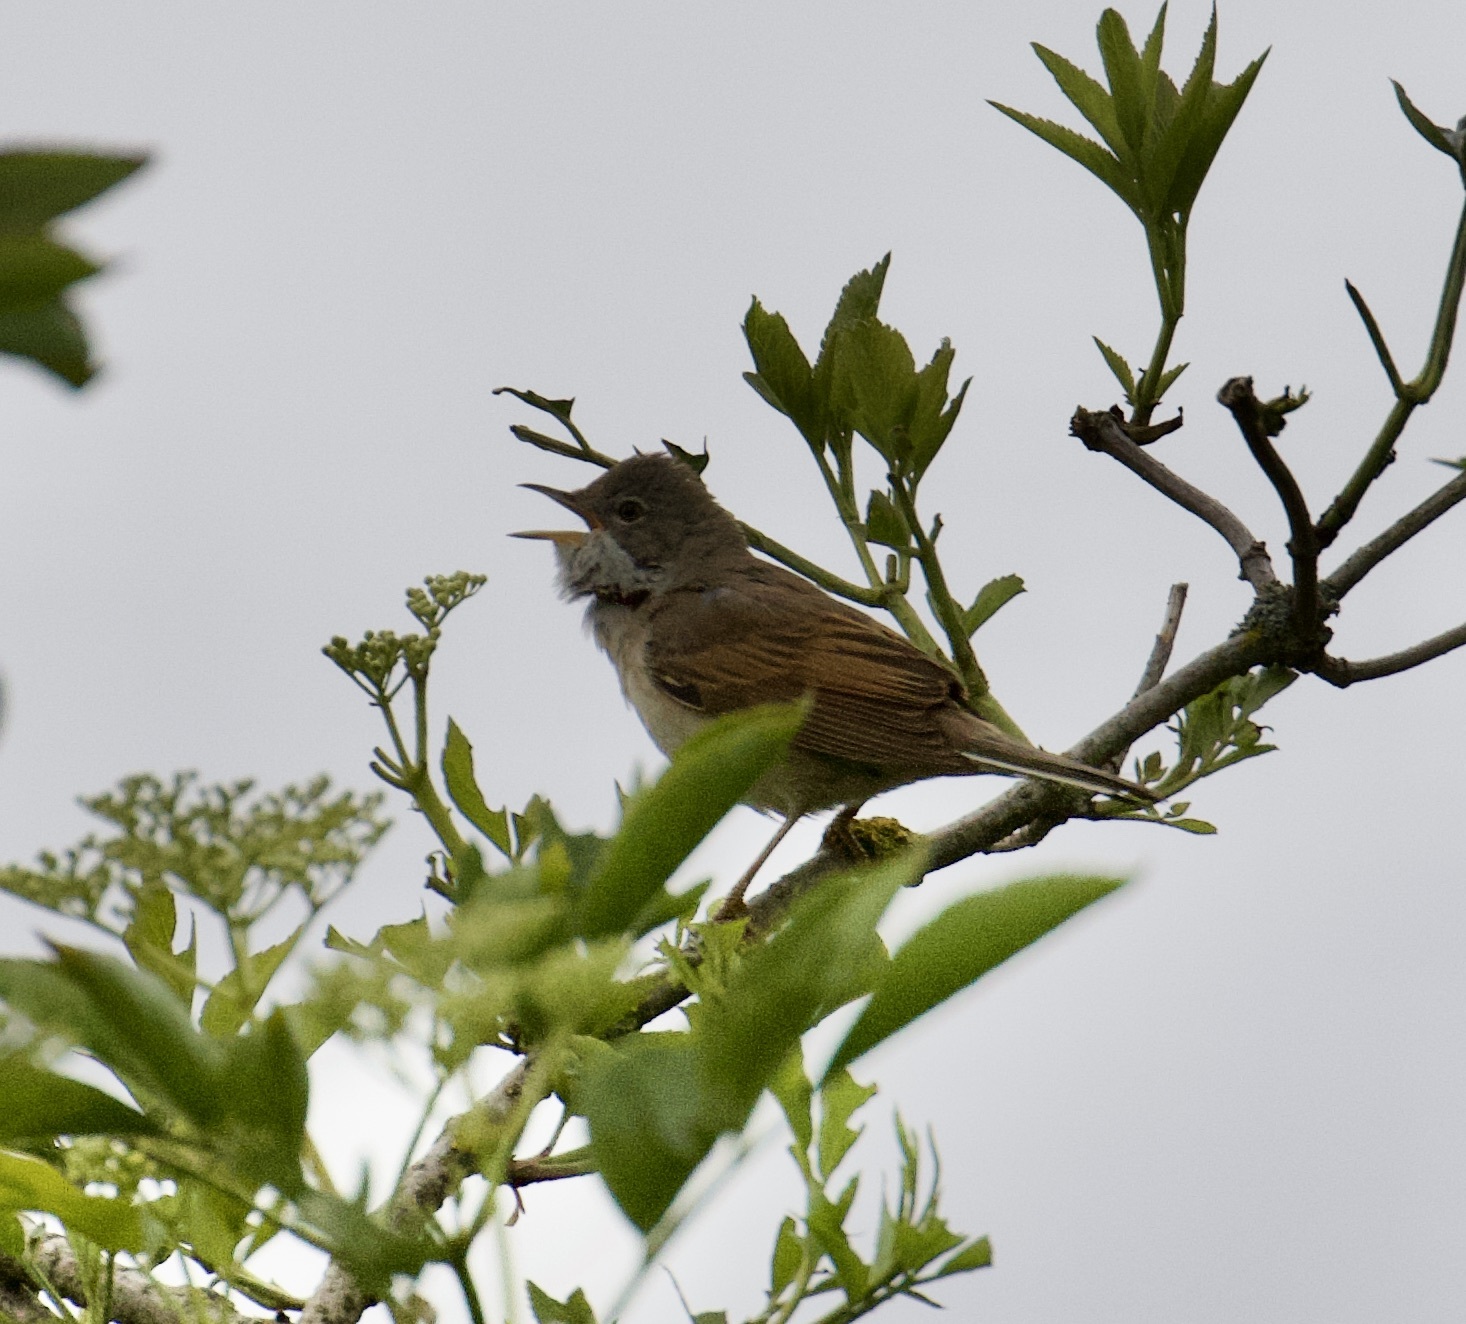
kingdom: Animalia
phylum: Chordata
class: Aves
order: Passeriformes
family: Sylviidae
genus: Sylvia
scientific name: Sylvia communis
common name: Common whitethroat
